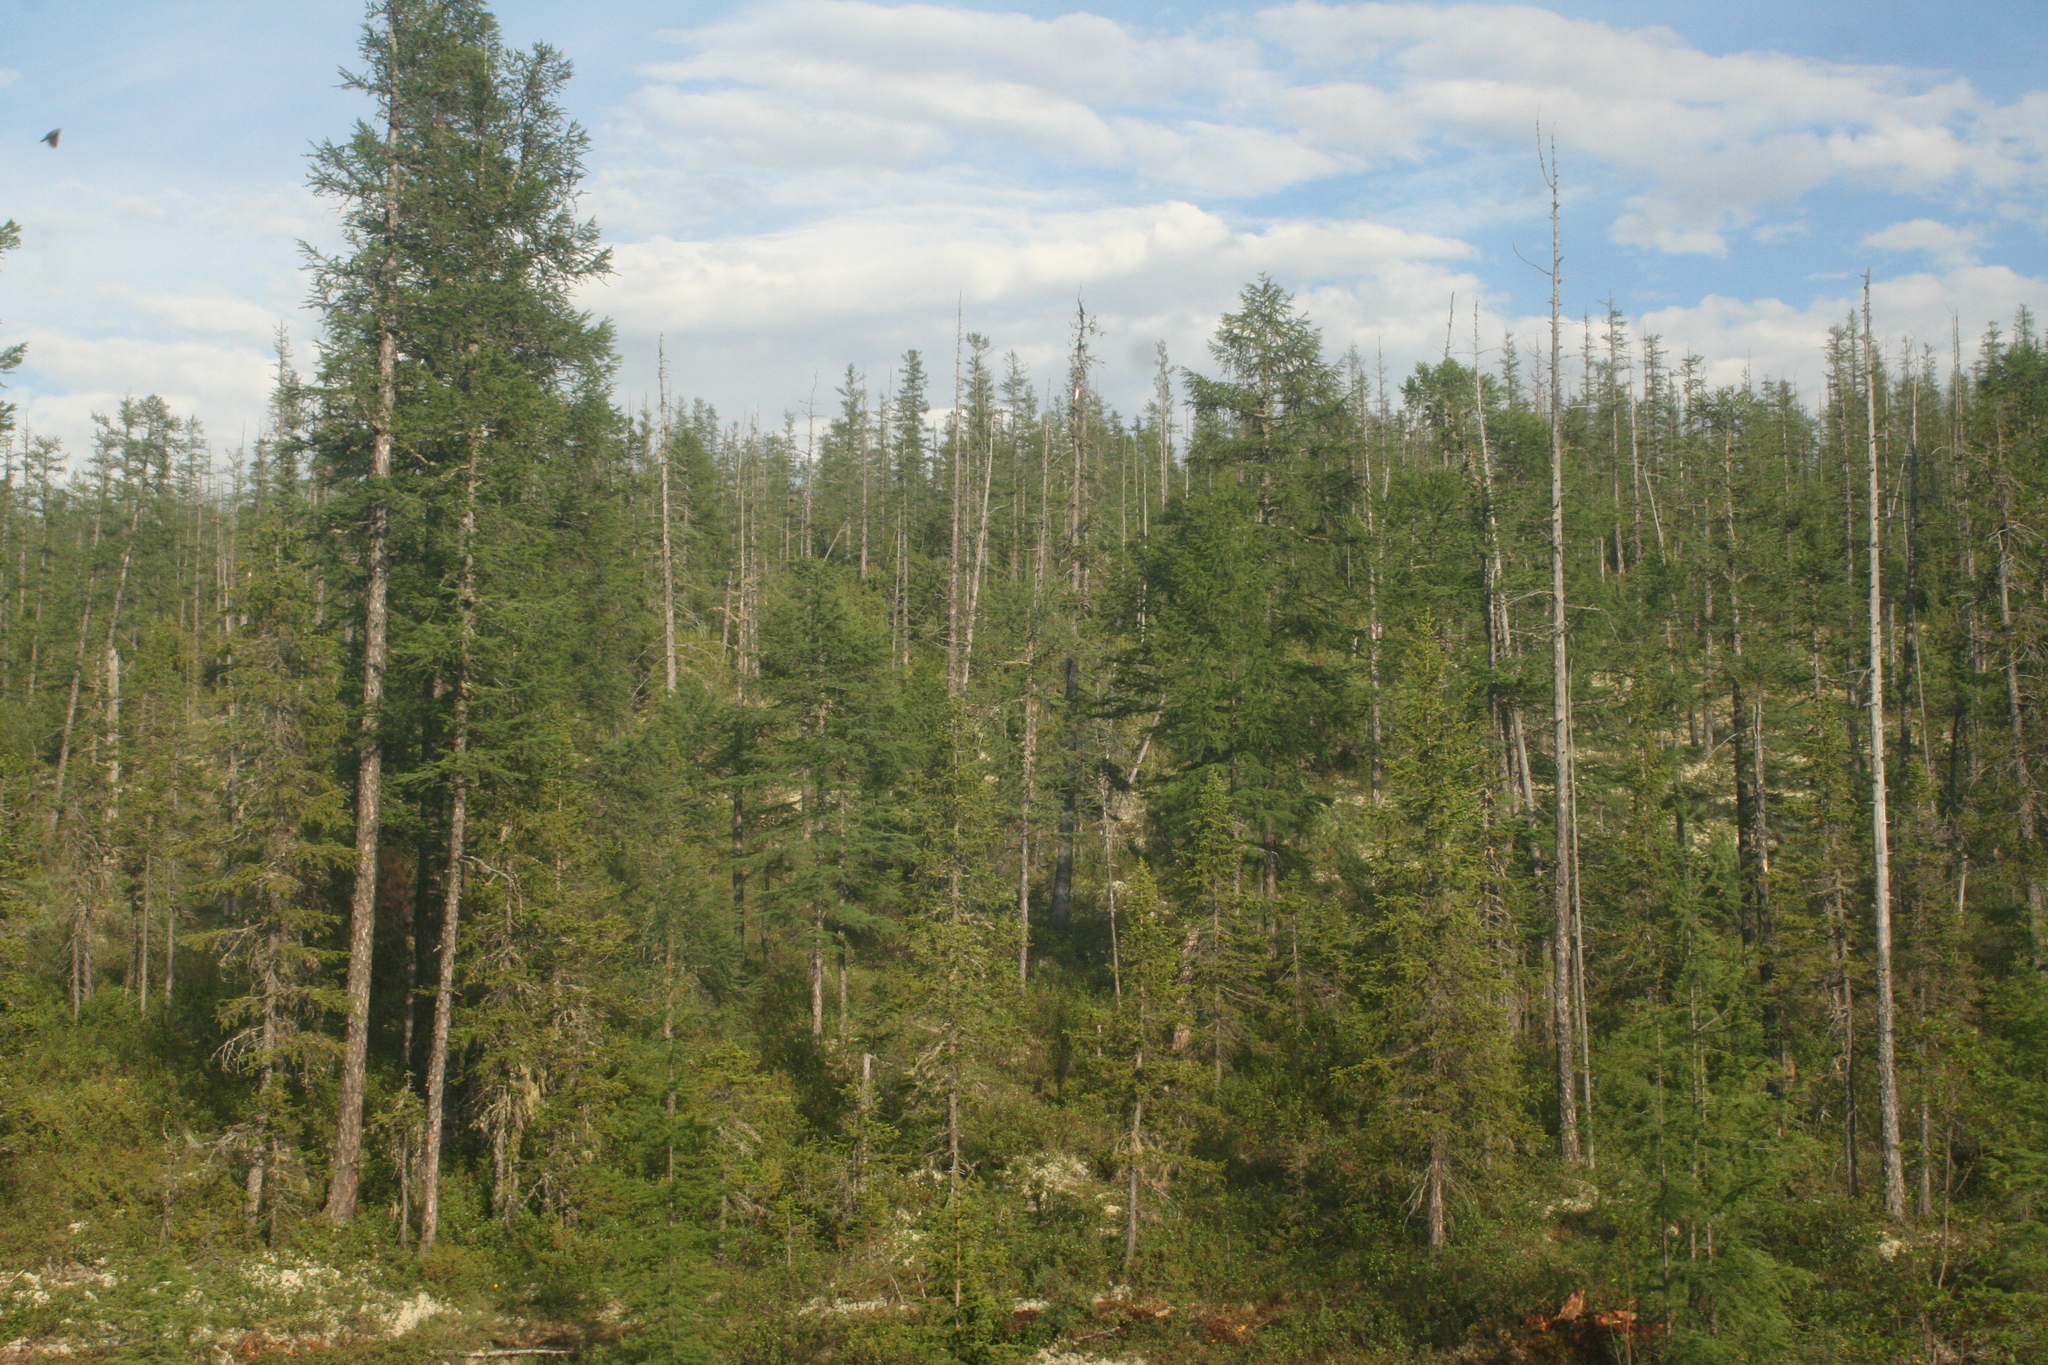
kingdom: Plantae
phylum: Tracheophyta
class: Pinopsida
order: Pinales
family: Pinaceae
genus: Larix
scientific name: Larix gmelinii
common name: Dahurian larch
